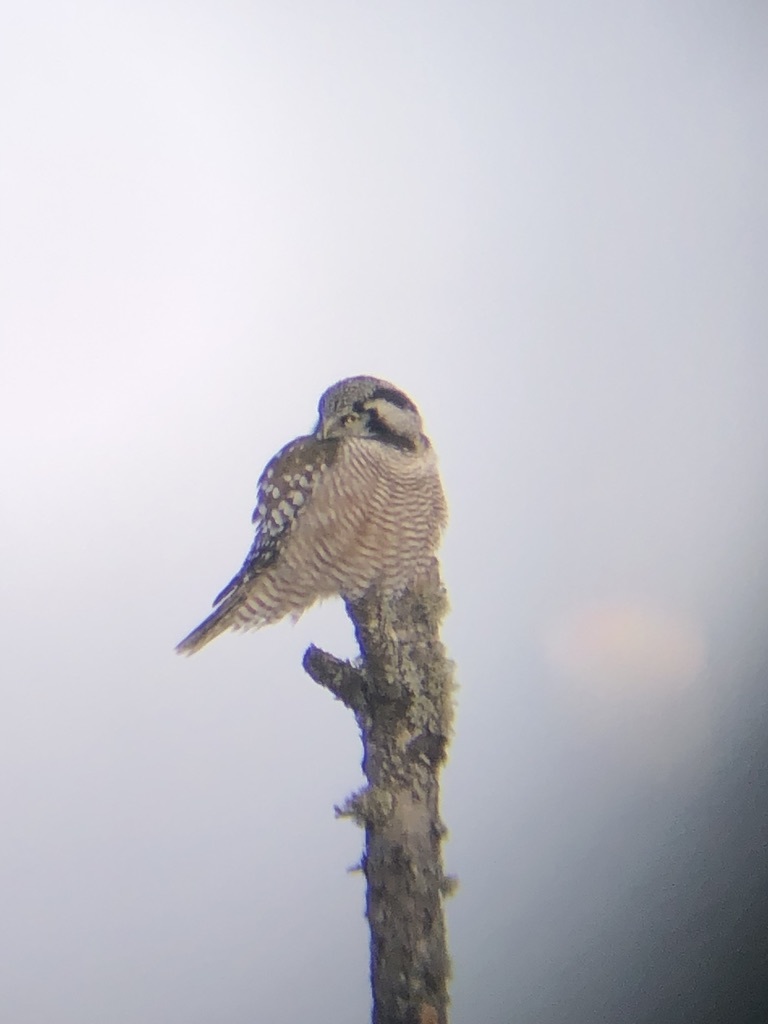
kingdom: Animalia
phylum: Chordata
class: Aves
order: Strigiformes
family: Strigidae
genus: Surnia
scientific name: Surnia ulula
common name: Northern hawk-owl
